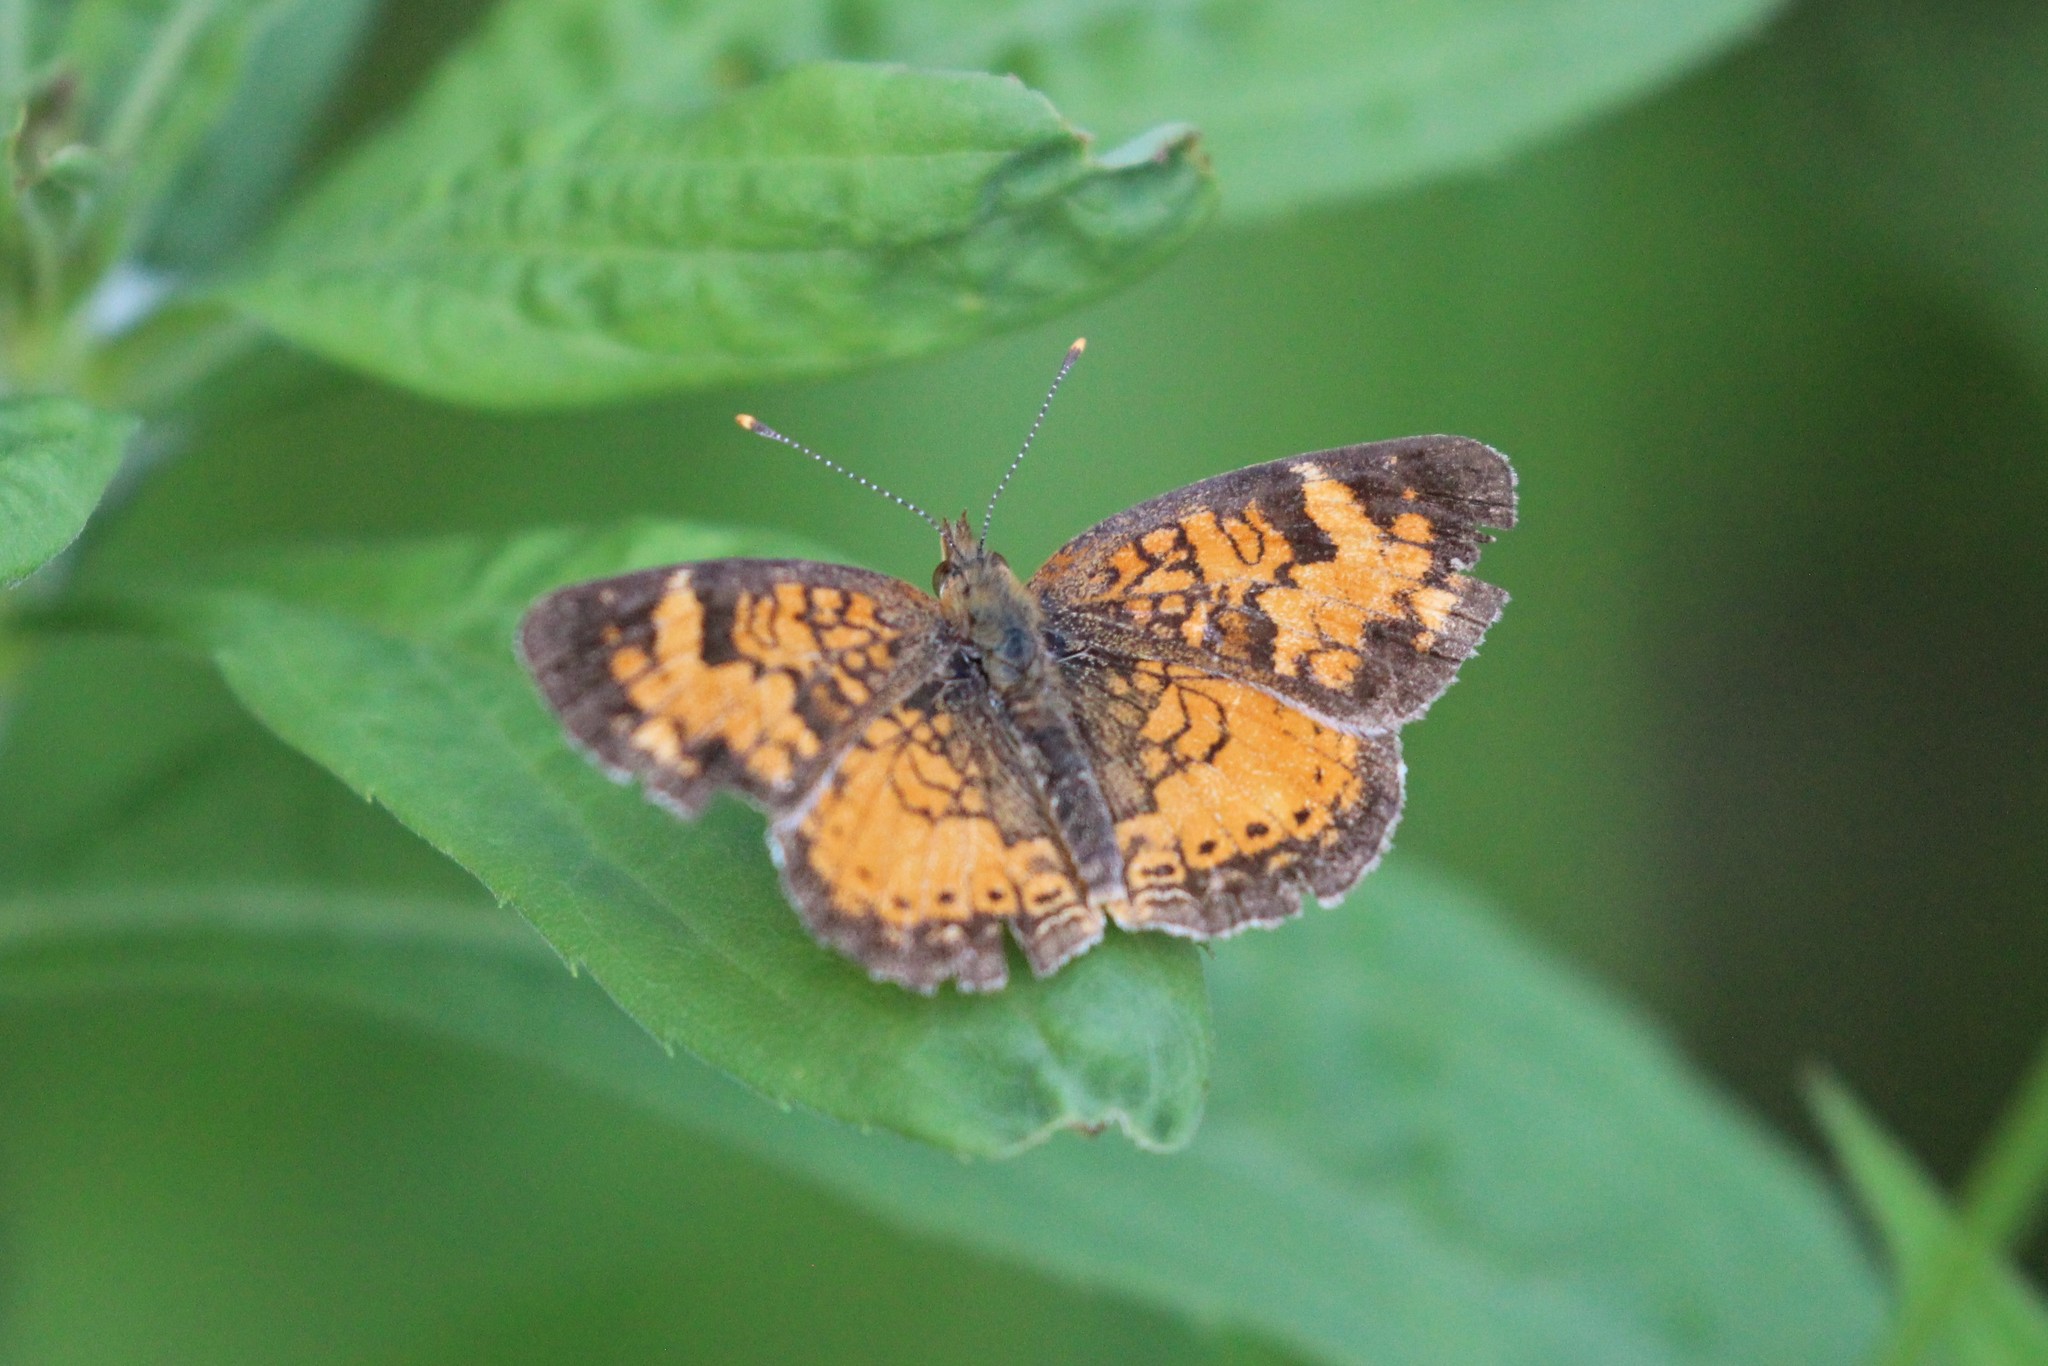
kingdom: Animalia
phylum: Arthropoda
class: Insecta
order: Lepidoptera
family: Nymphalidae
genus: Phyciodes
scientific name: Phyciodes tharos
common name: Pearl crescent
